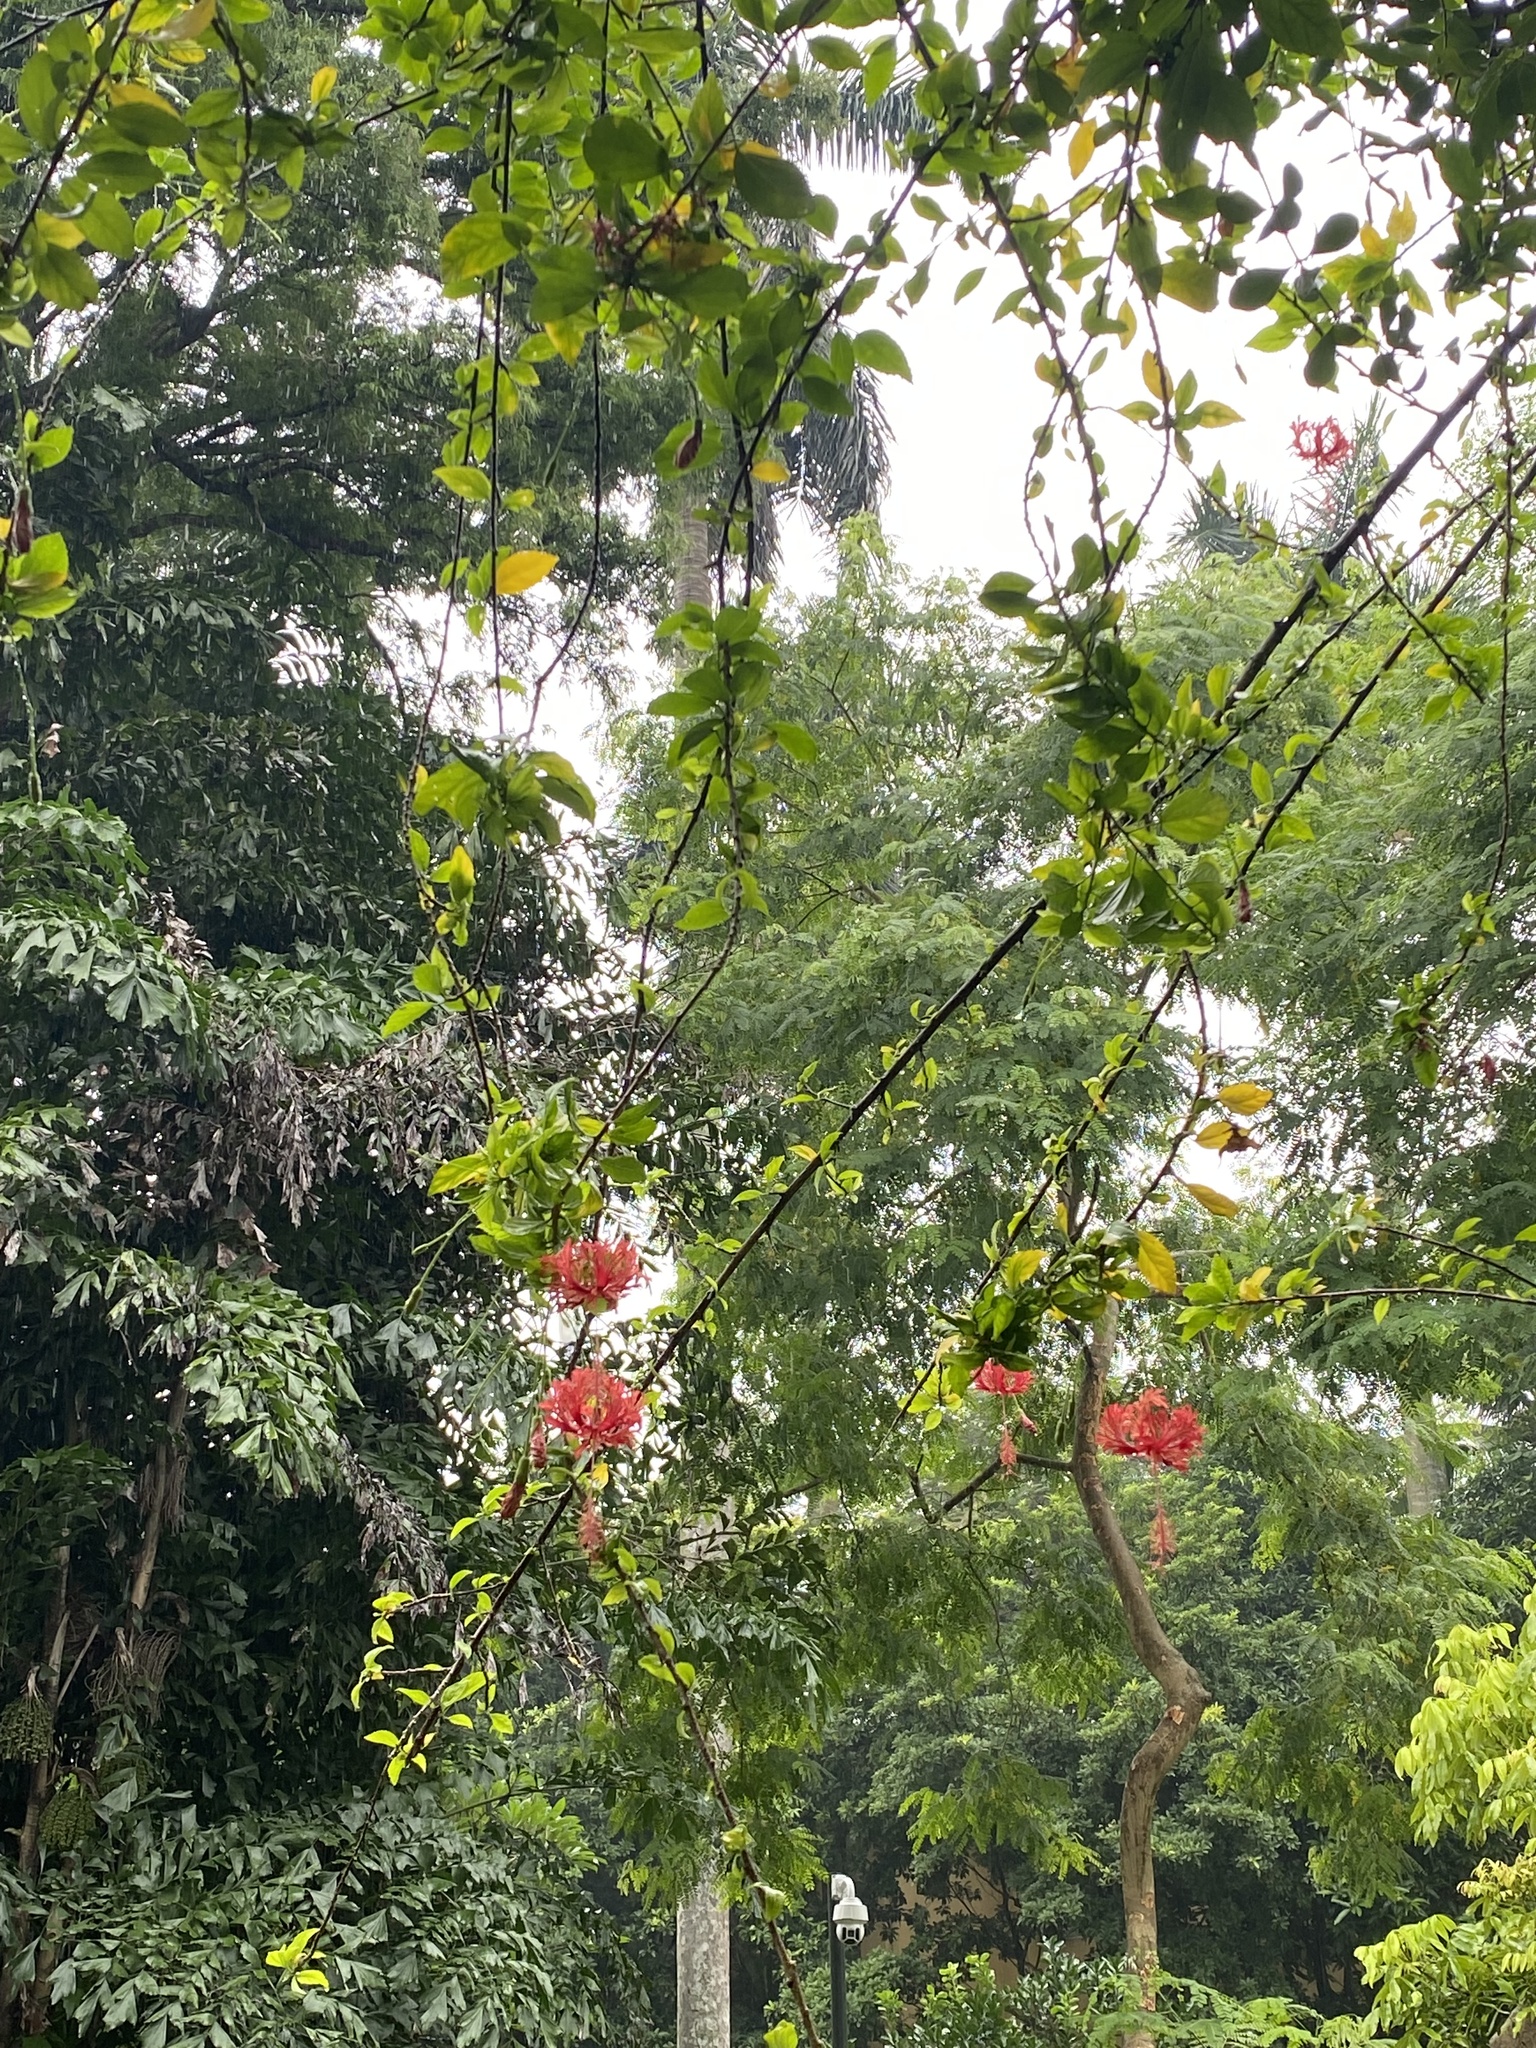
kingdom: Plantae
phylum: Tracheophyta
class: Magnoliopsida
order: Malvales
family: Malvaceae
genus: Hibiscus
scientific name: Hibiscus schizopetalus
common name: Fringed rosemallow
